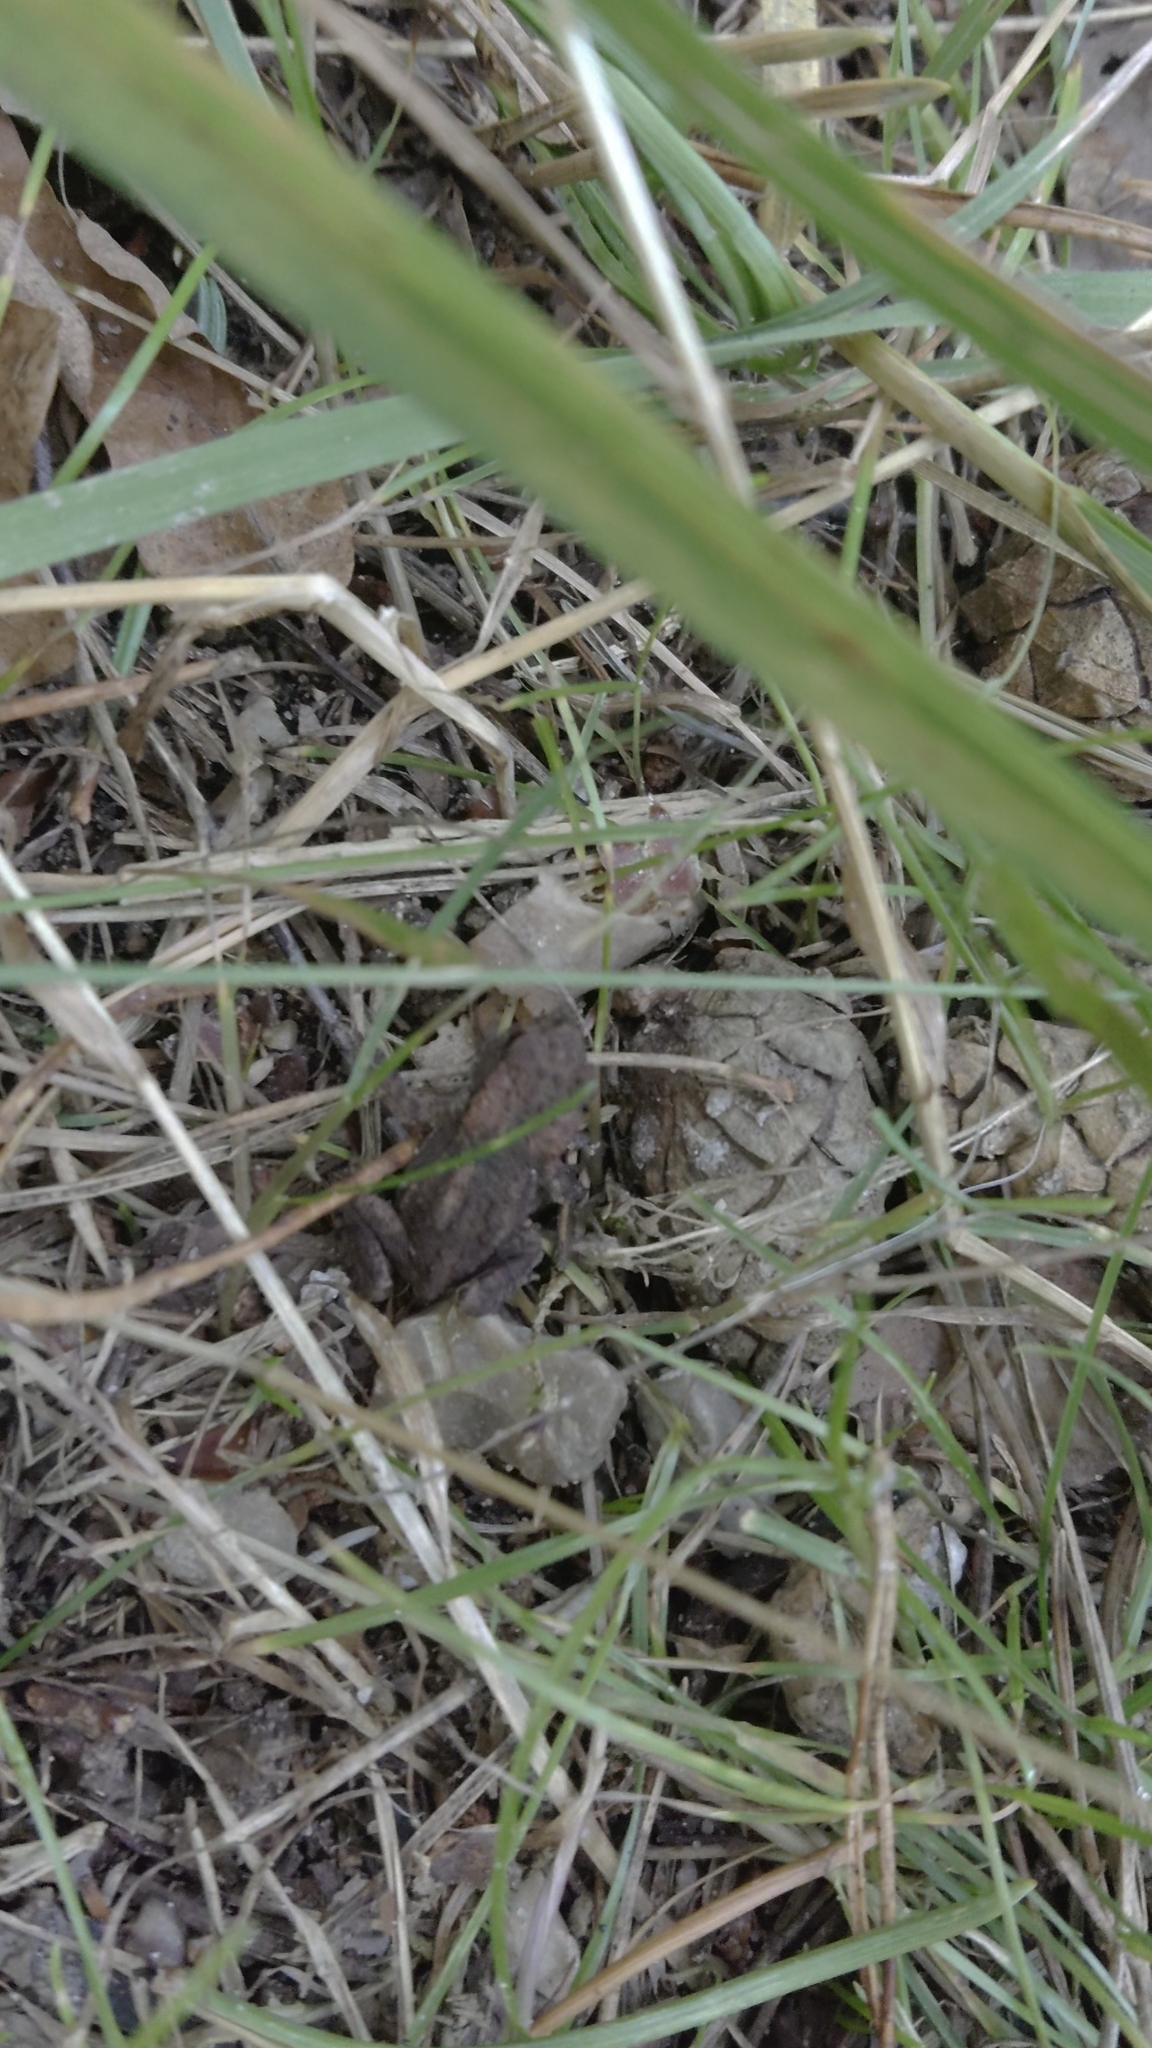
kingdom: Animalia
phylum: Chordata
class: Amphibia
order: Anura
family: Bufonidae
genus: Bufo
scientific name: Bufo bufo
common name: Common toad
